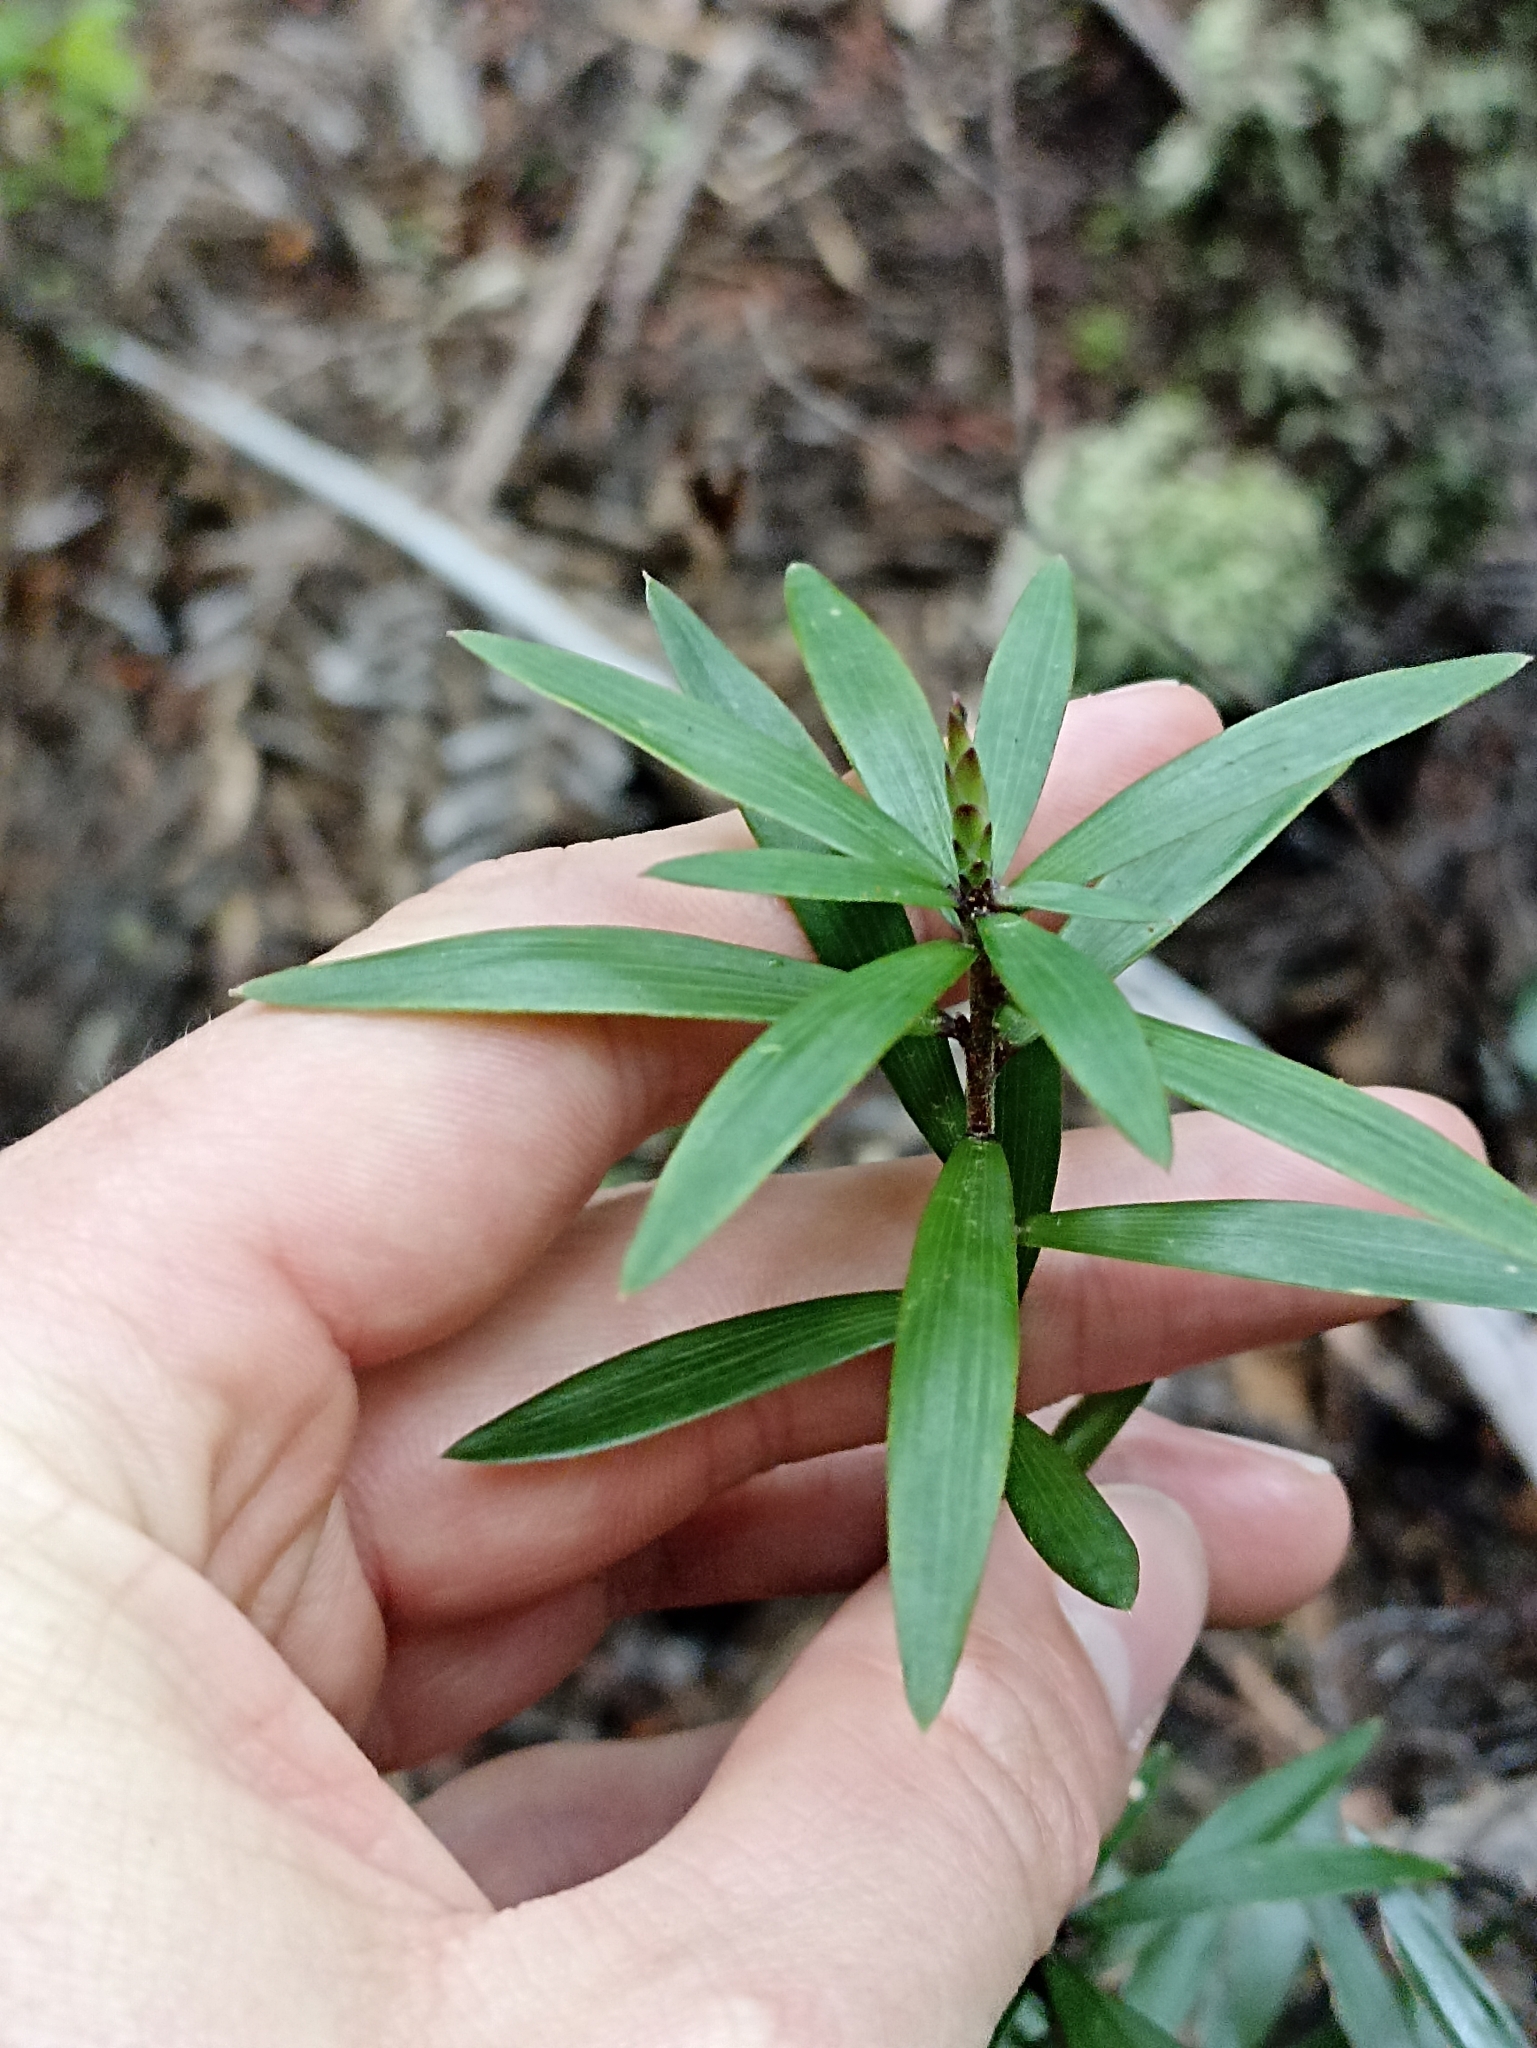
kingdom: Plantae
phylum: Tracheophyta
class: Magnoliopsida
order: Ericales
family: Ericaceae
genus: Leucopogon
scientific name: Leucopogon fasciculatus
